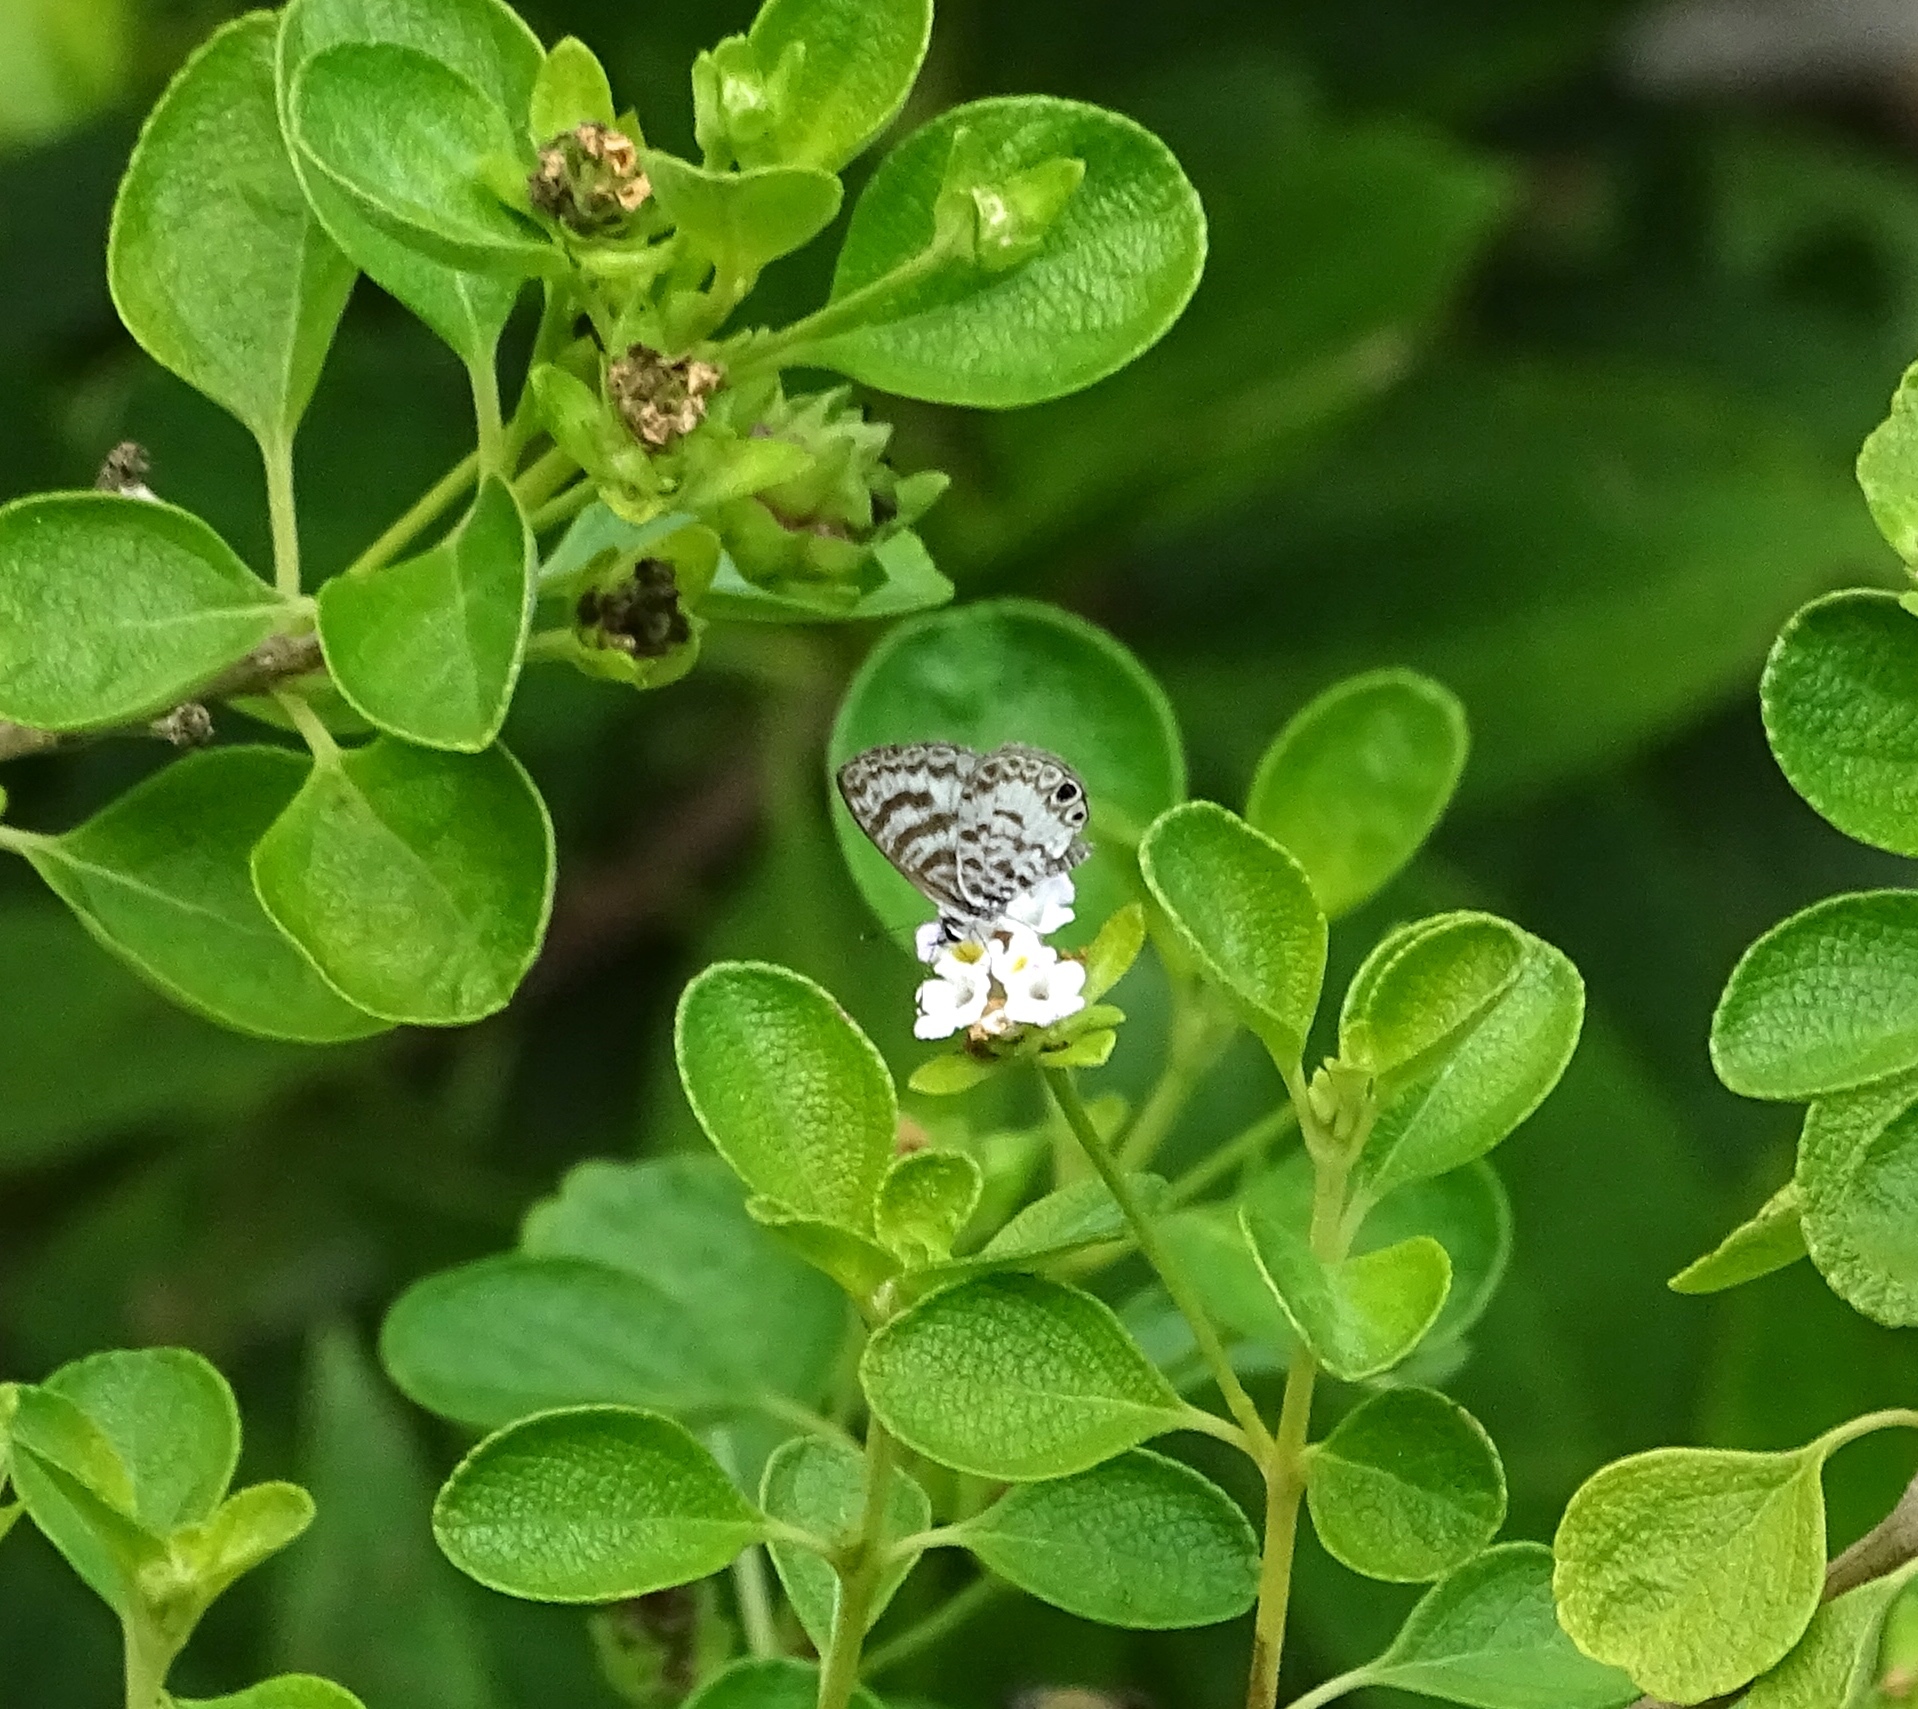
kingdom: Animalia
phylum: Arthropoda
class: Insecta
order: Lepidoptera
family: Lycaenidae
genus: Leptotes
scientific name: Leptotes cassius
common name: Cassius blue
